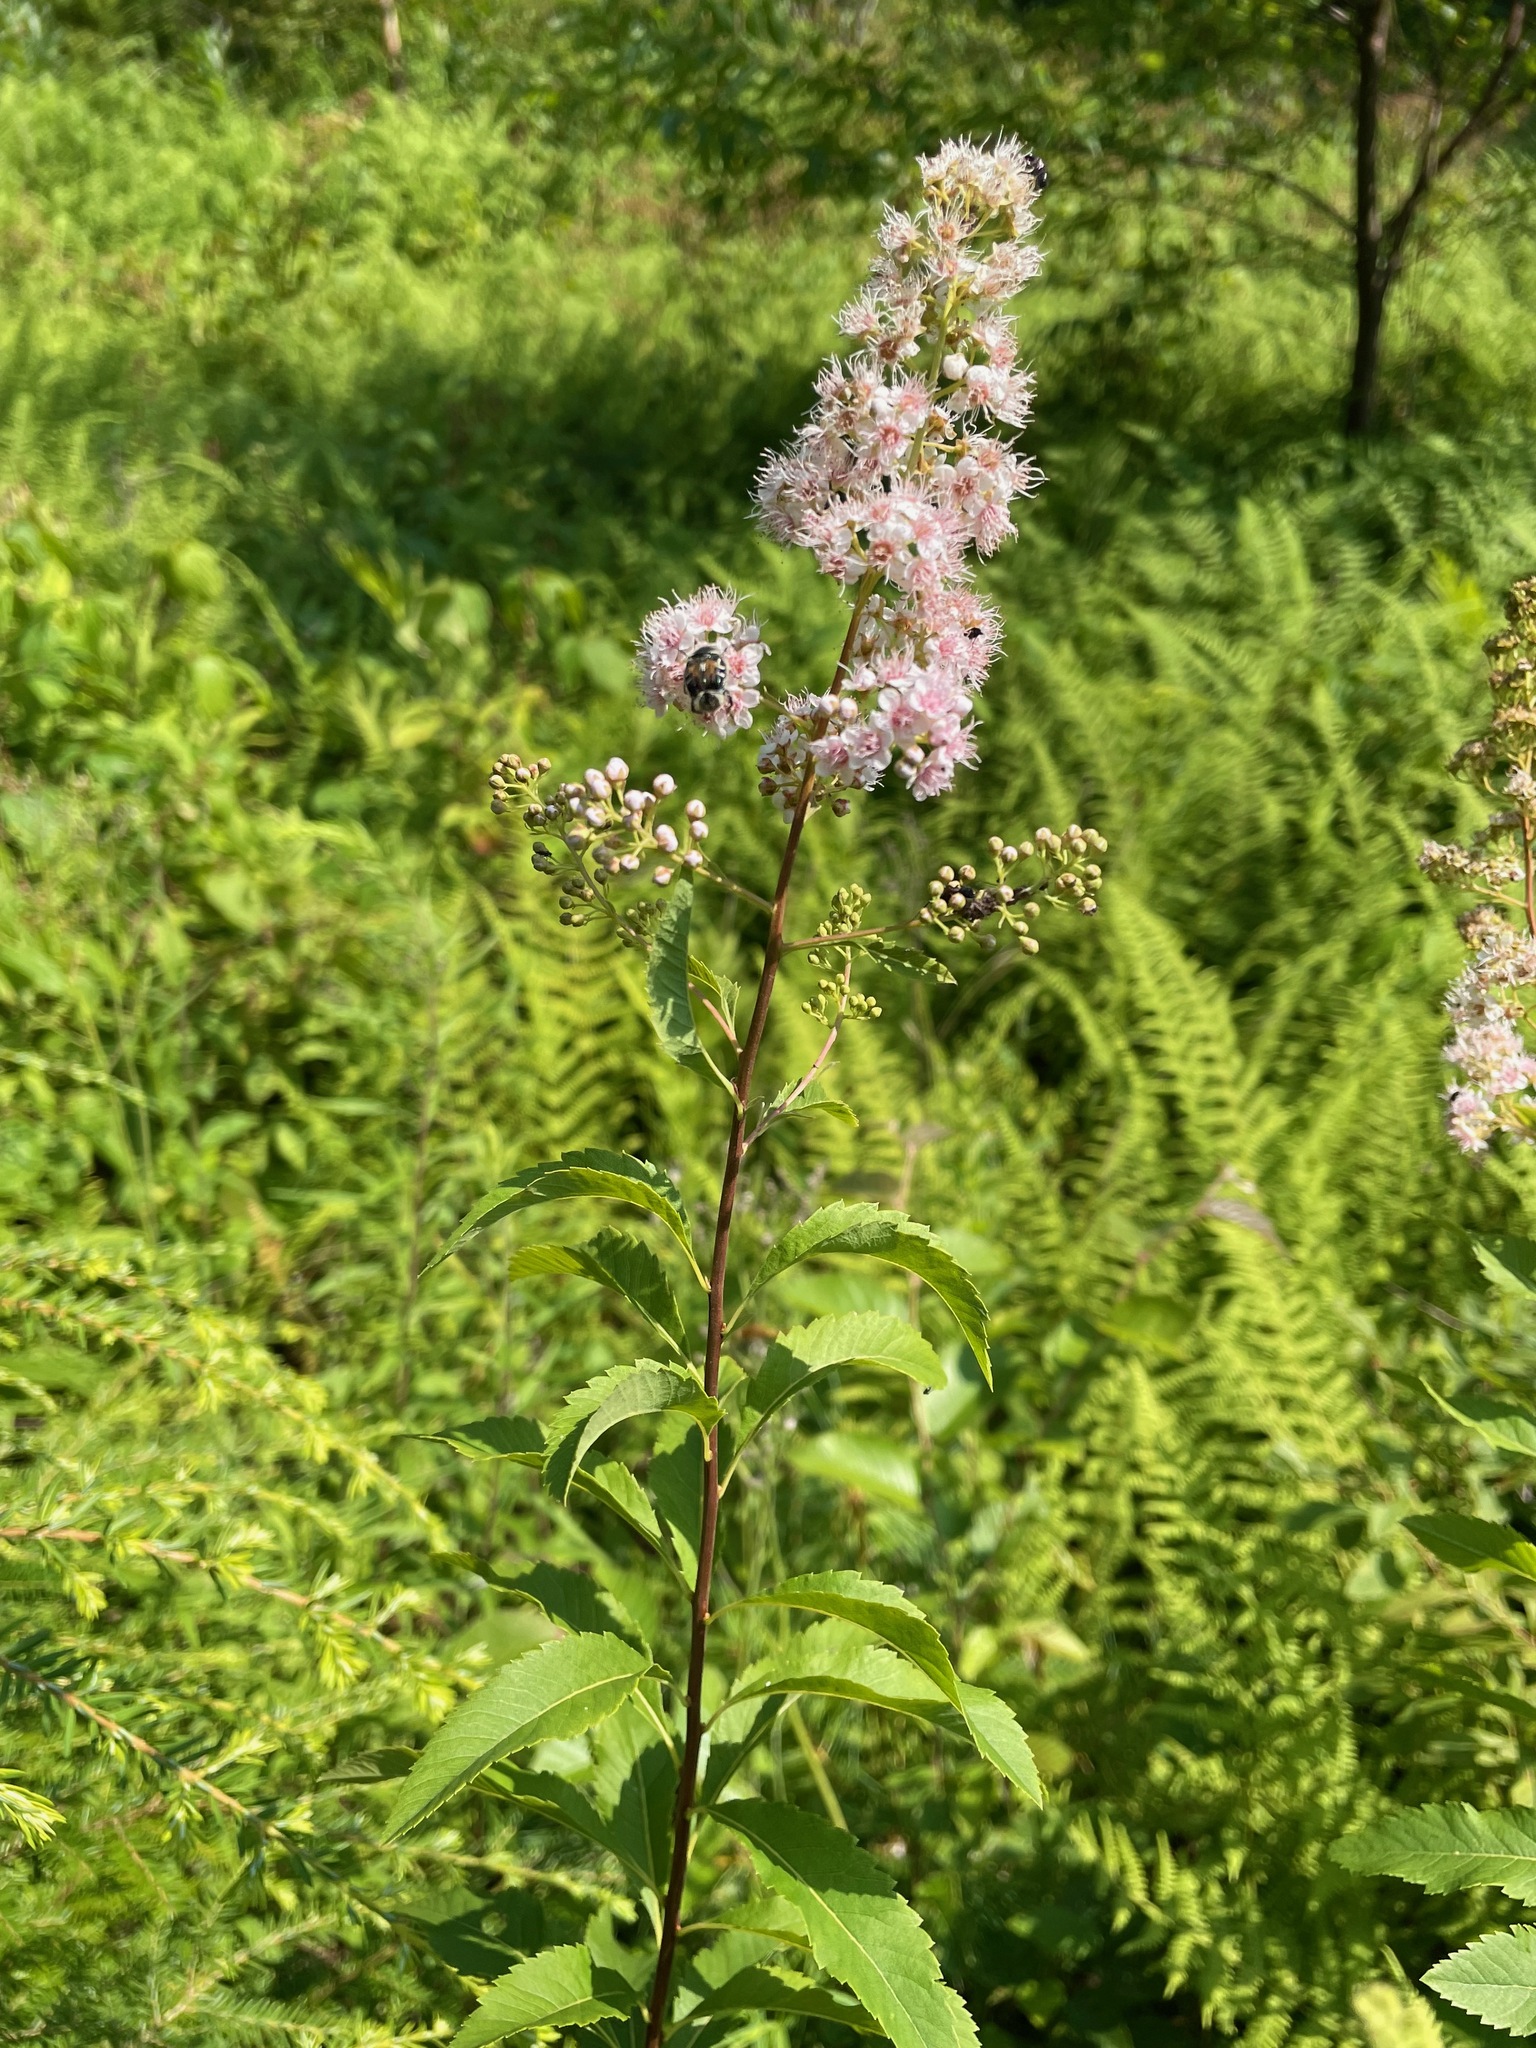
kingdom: Plantae
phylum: Tracheophyta
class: Magnoliopsida
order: Rosales
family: Rosaceae
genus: Spiraea
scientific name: Spiraea alba
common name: Pale bridewort
